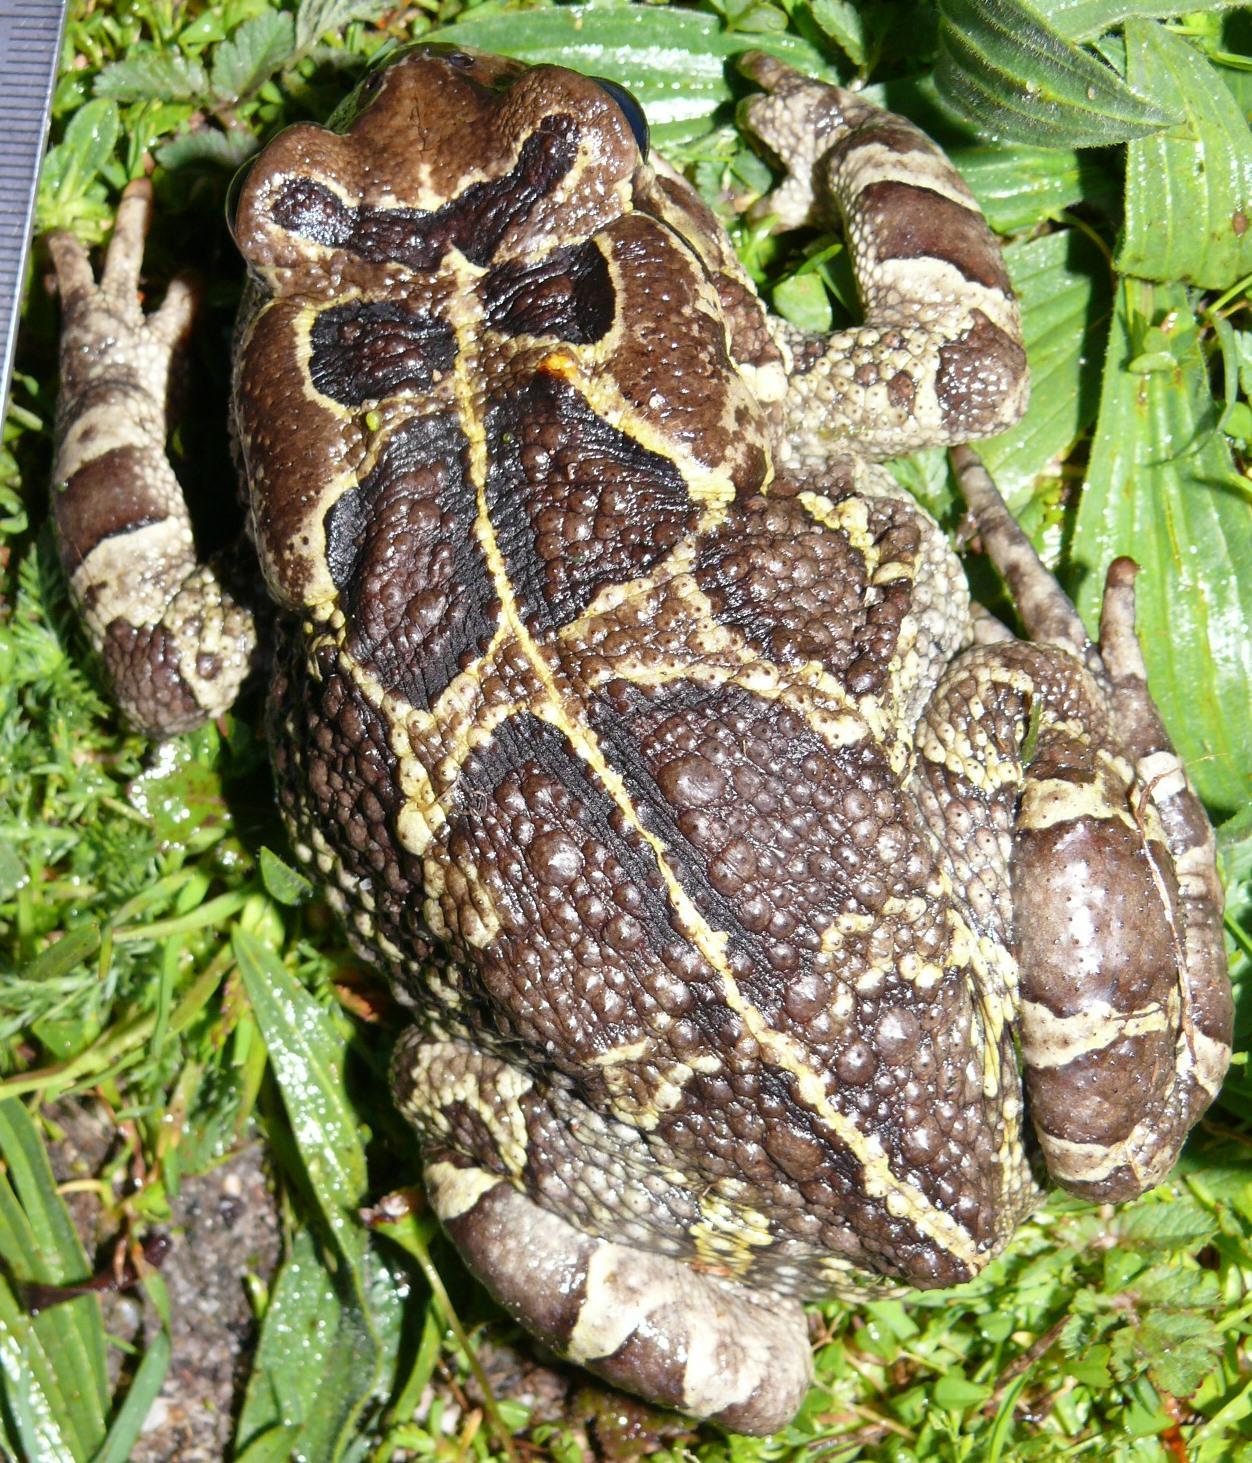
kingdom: Animalia
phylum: Chordata
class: Amphibia
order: Anura
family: Bufonidae
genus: Sclerophrys
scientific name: Sclerophrys pantherina
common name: Panther toad
